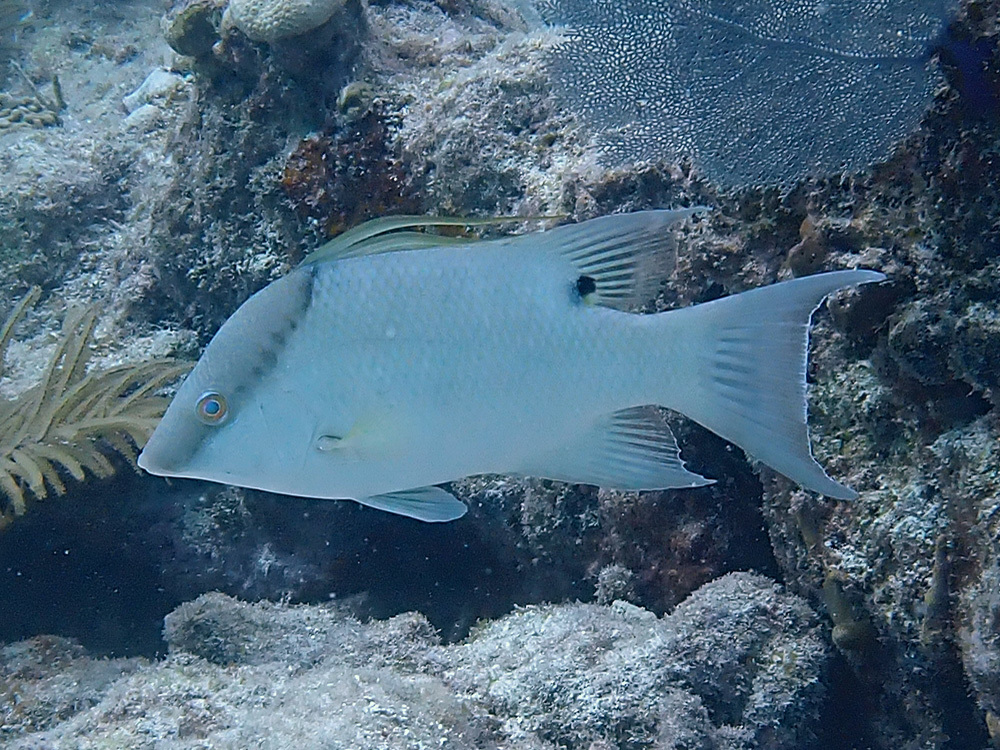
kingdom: Animalia
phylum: Chordata
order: Perciformes
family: Labridae
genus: Lachnolaimus
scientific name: Lachnolaimus maximus
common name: Hogfish
